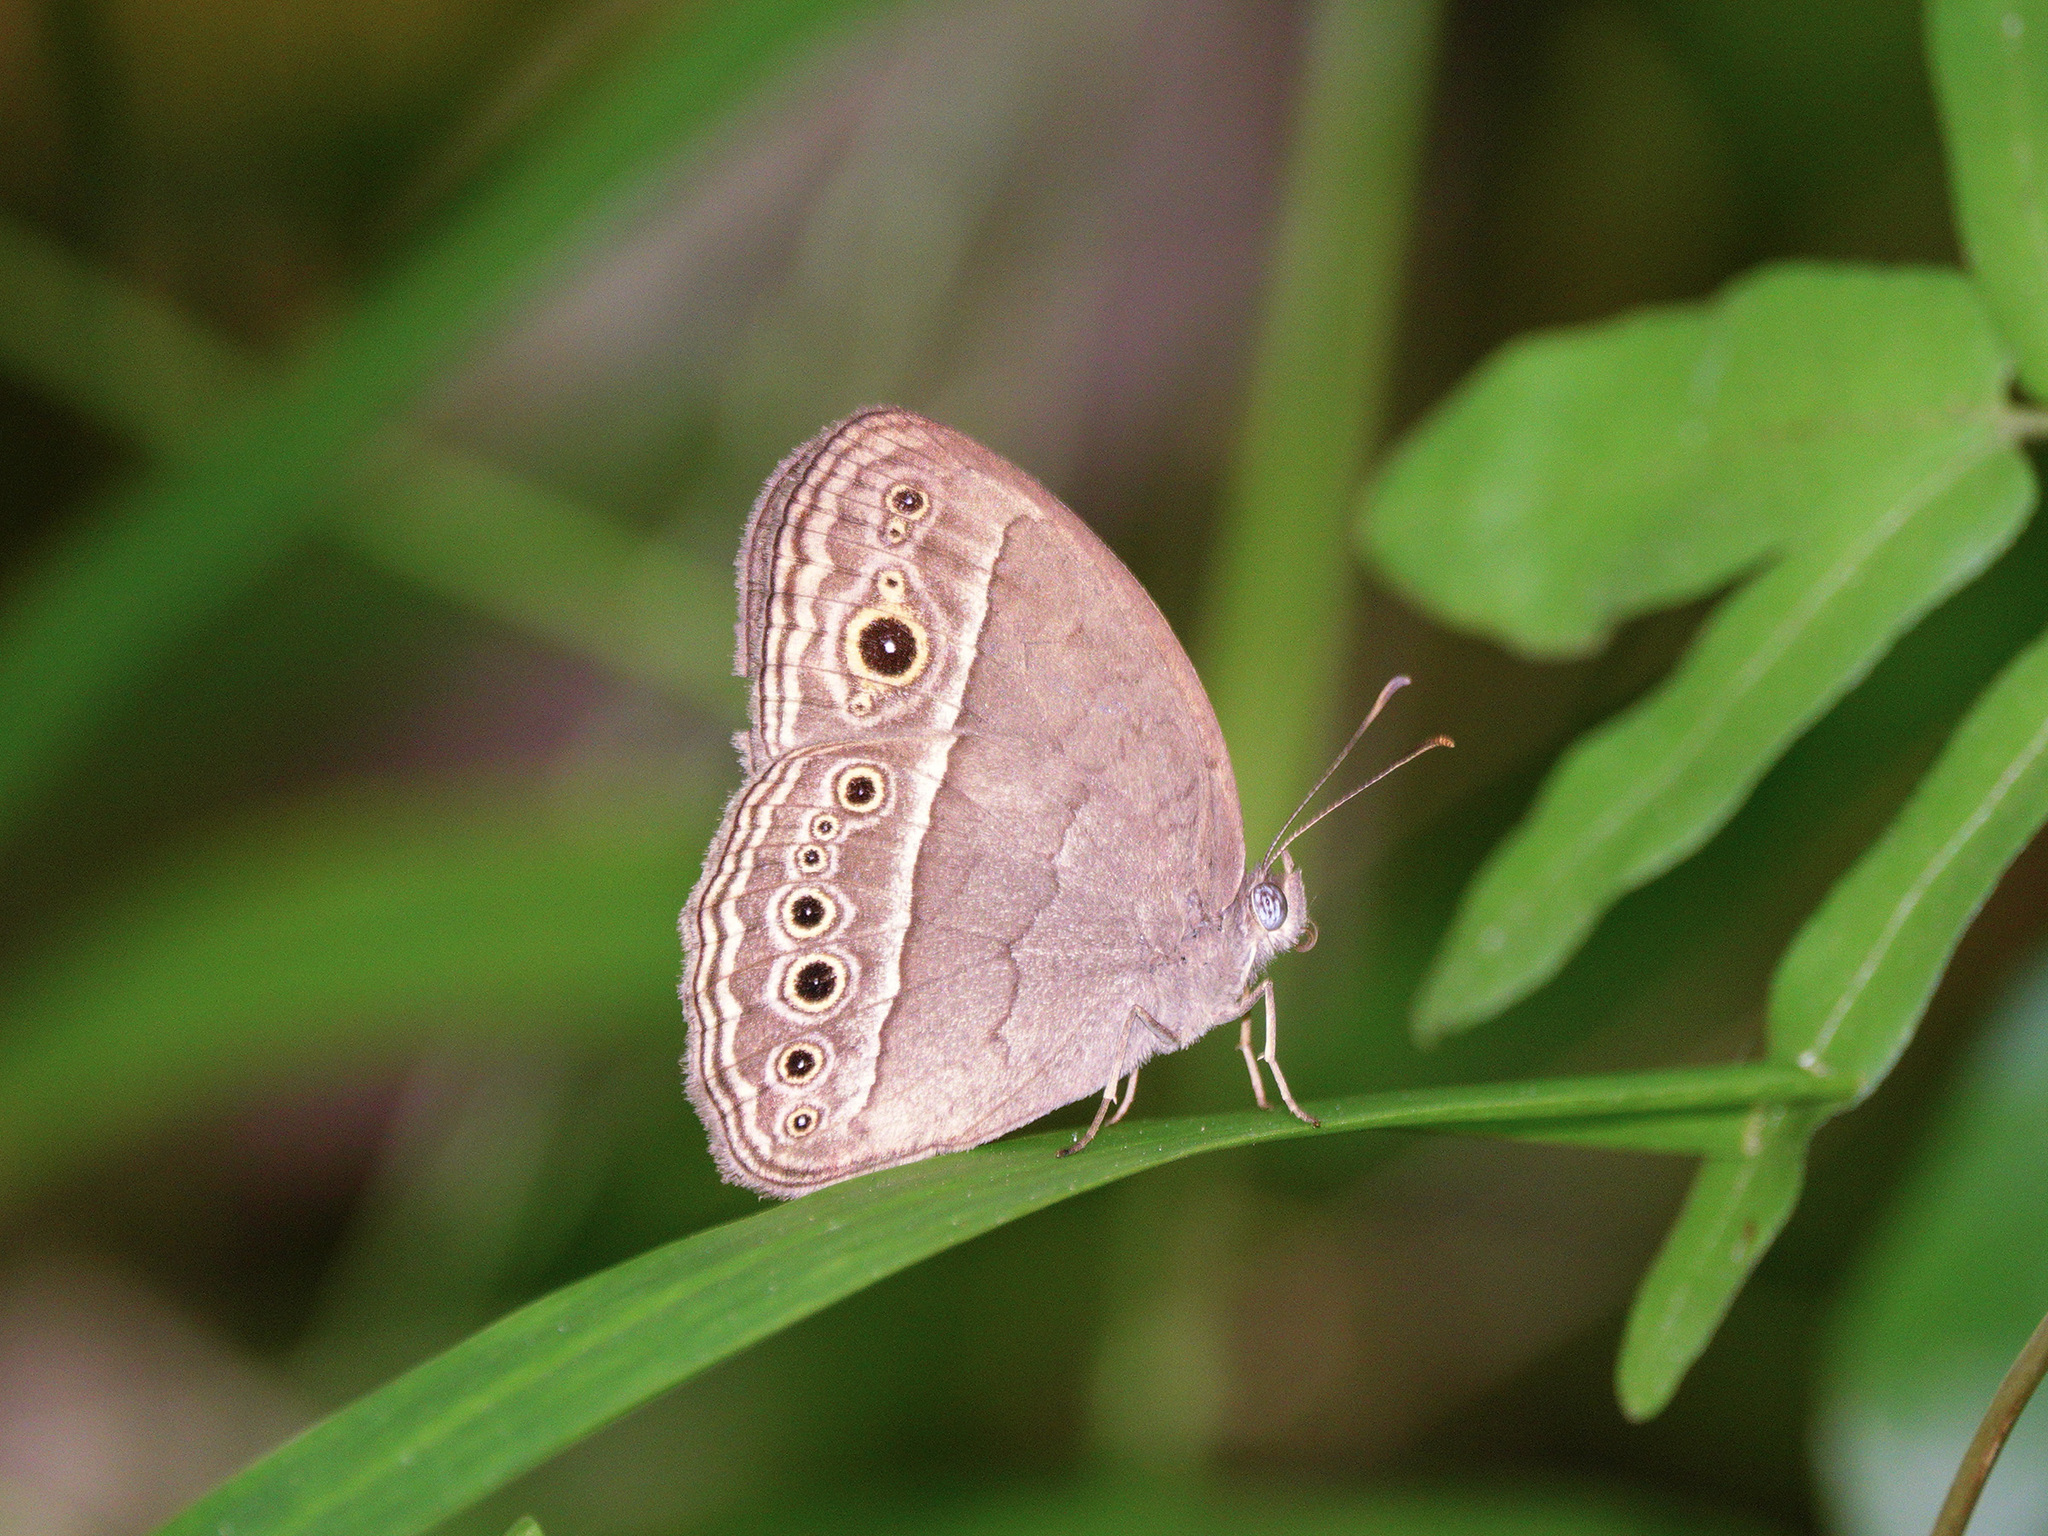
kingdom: Animalia
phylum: Arthropoda
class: Insecta
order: Lepidoptera
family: Nymphalidae
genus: Mycalesis
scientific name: Mycalesis perseoides
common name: Burmese bushbrown
